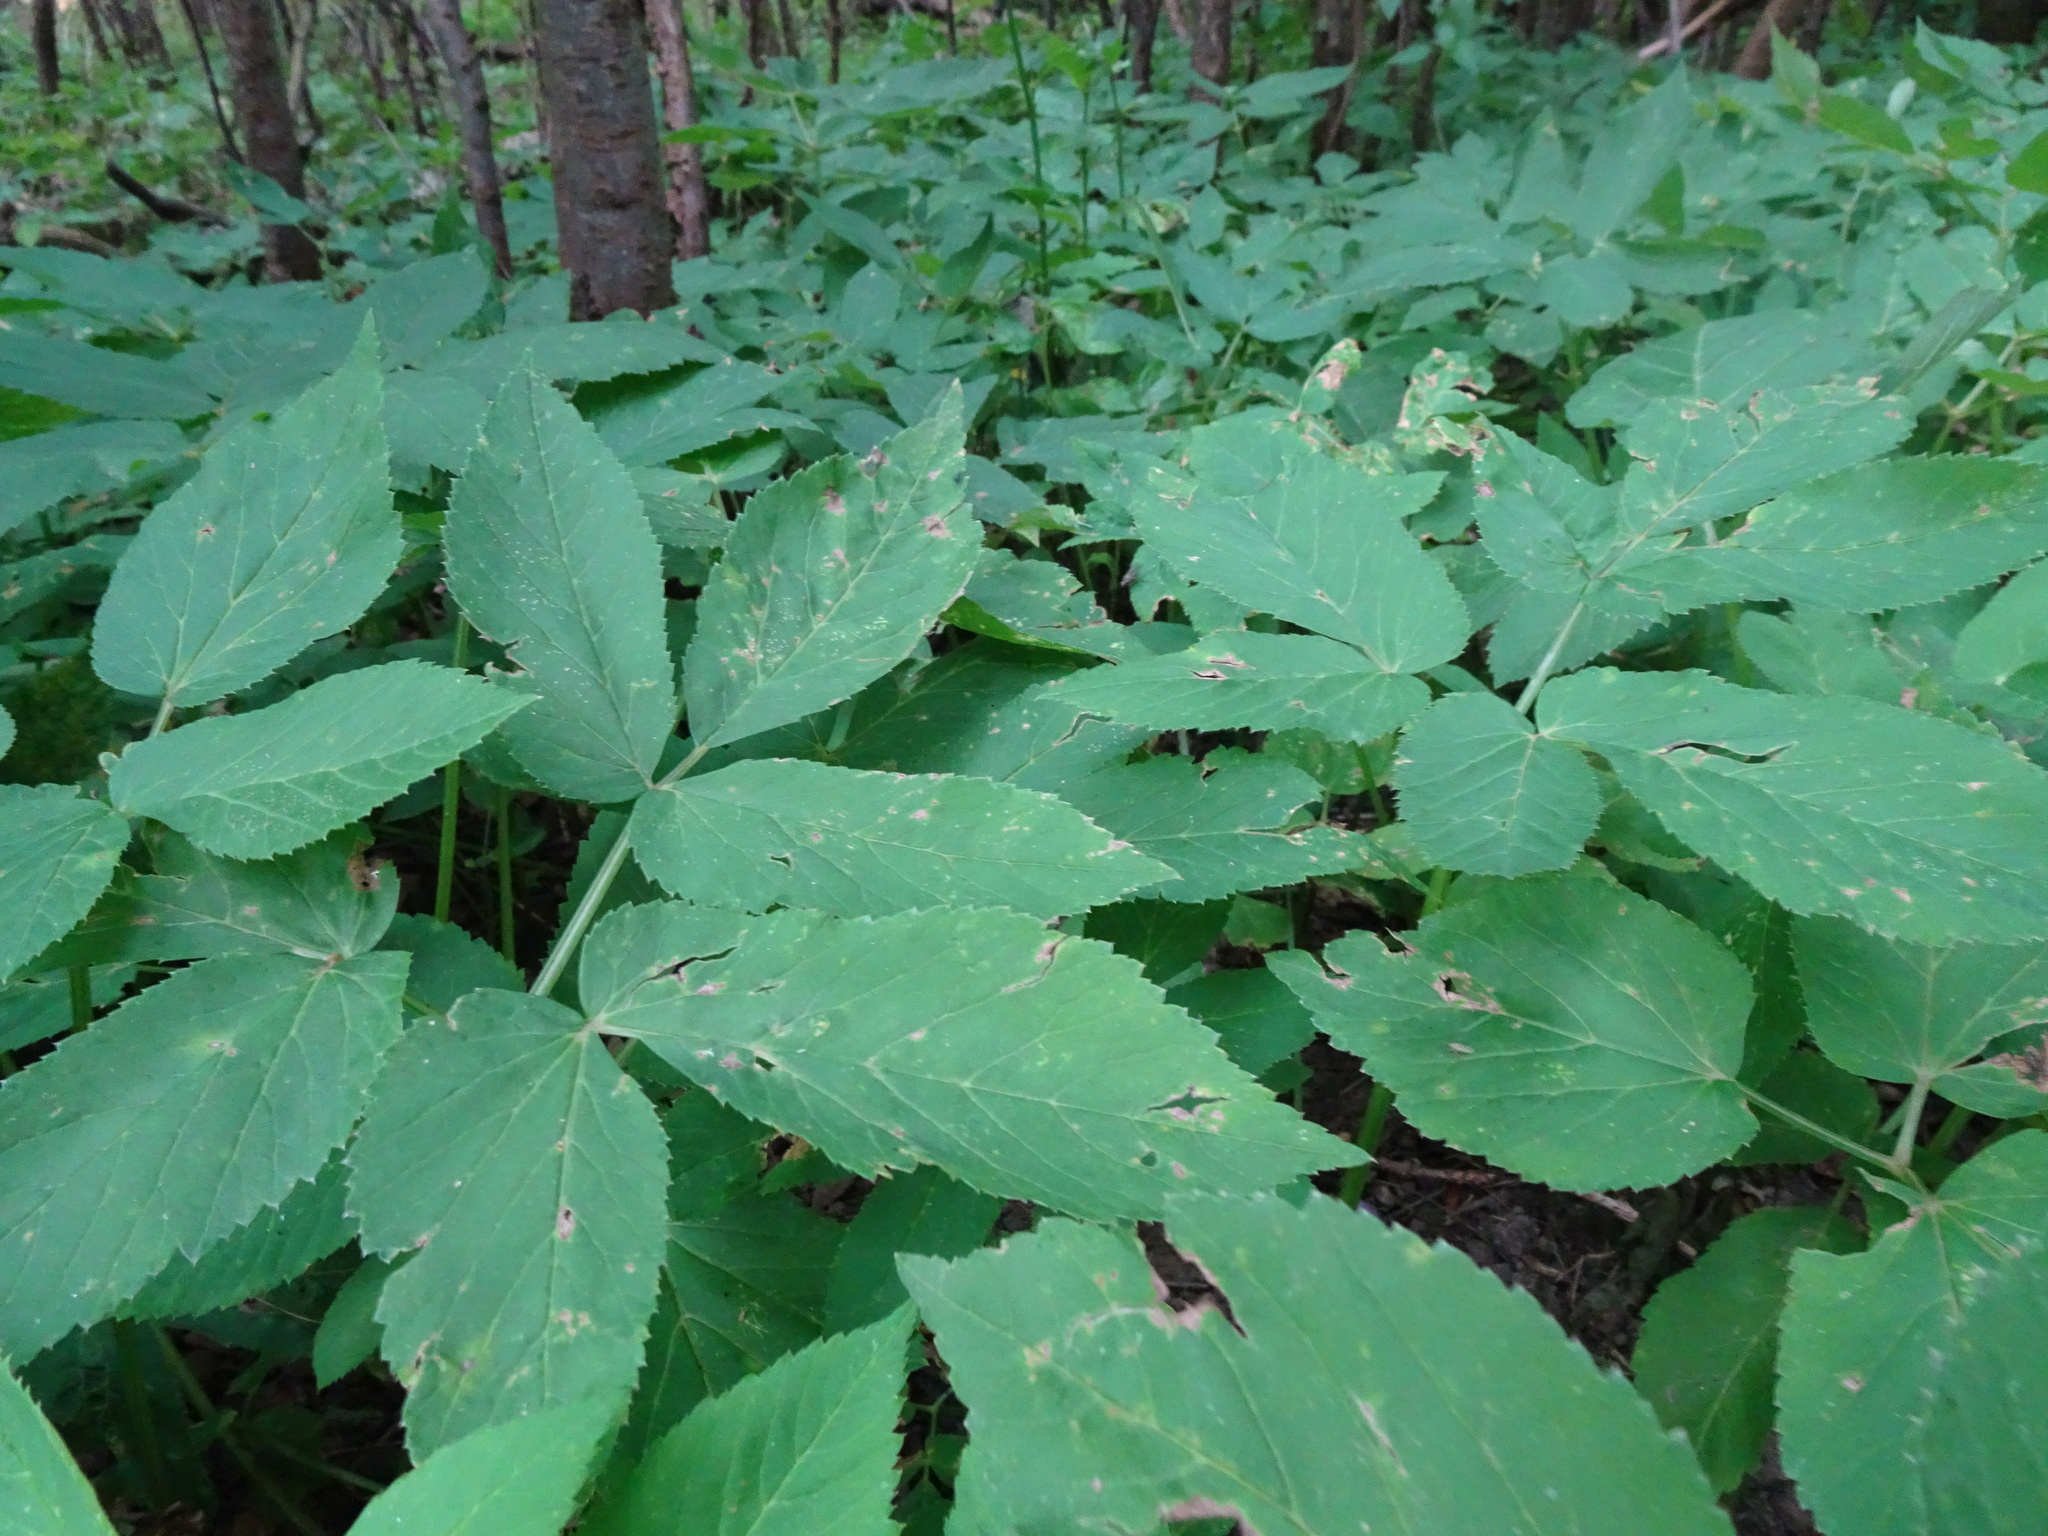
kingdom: Plantae
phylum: Tracheophyta
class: Magnoliopsida
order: Apiales
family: Apiaceae
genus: Aegopodium
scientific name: Aegopodium podagraria
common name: Ground-elder
